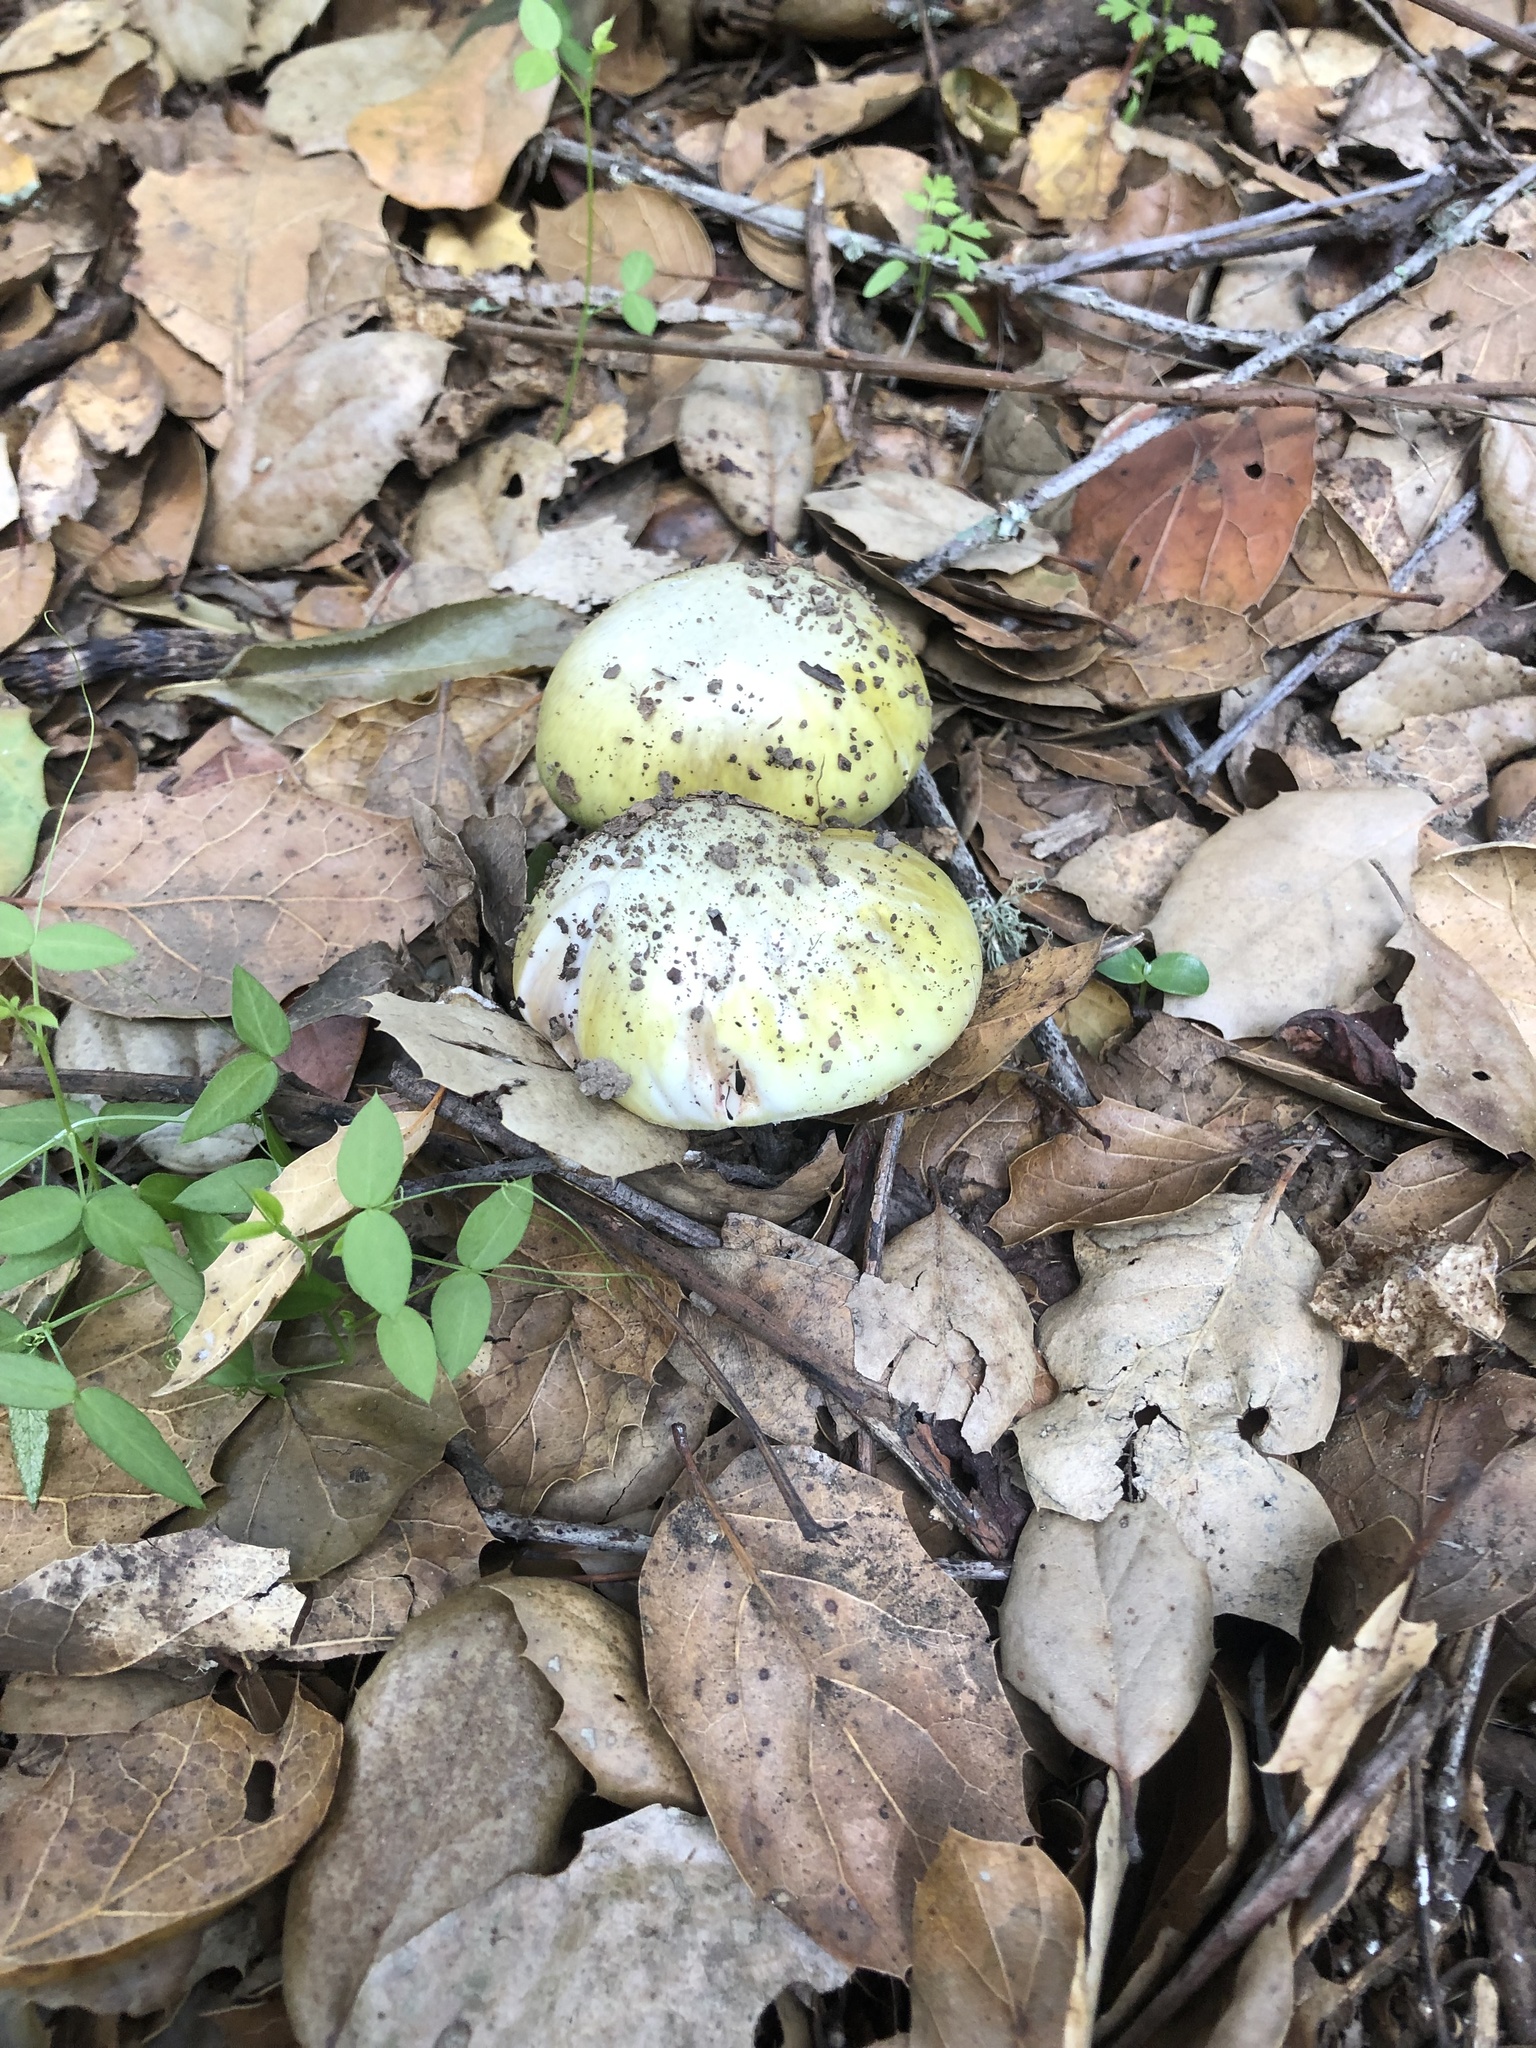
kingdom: Fungi
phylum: Basidiomycota
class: Agaricomycetes
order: Agaricales
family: Amanitaceae
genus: Amanita
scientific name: Amanita phalloides
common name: Death cap
